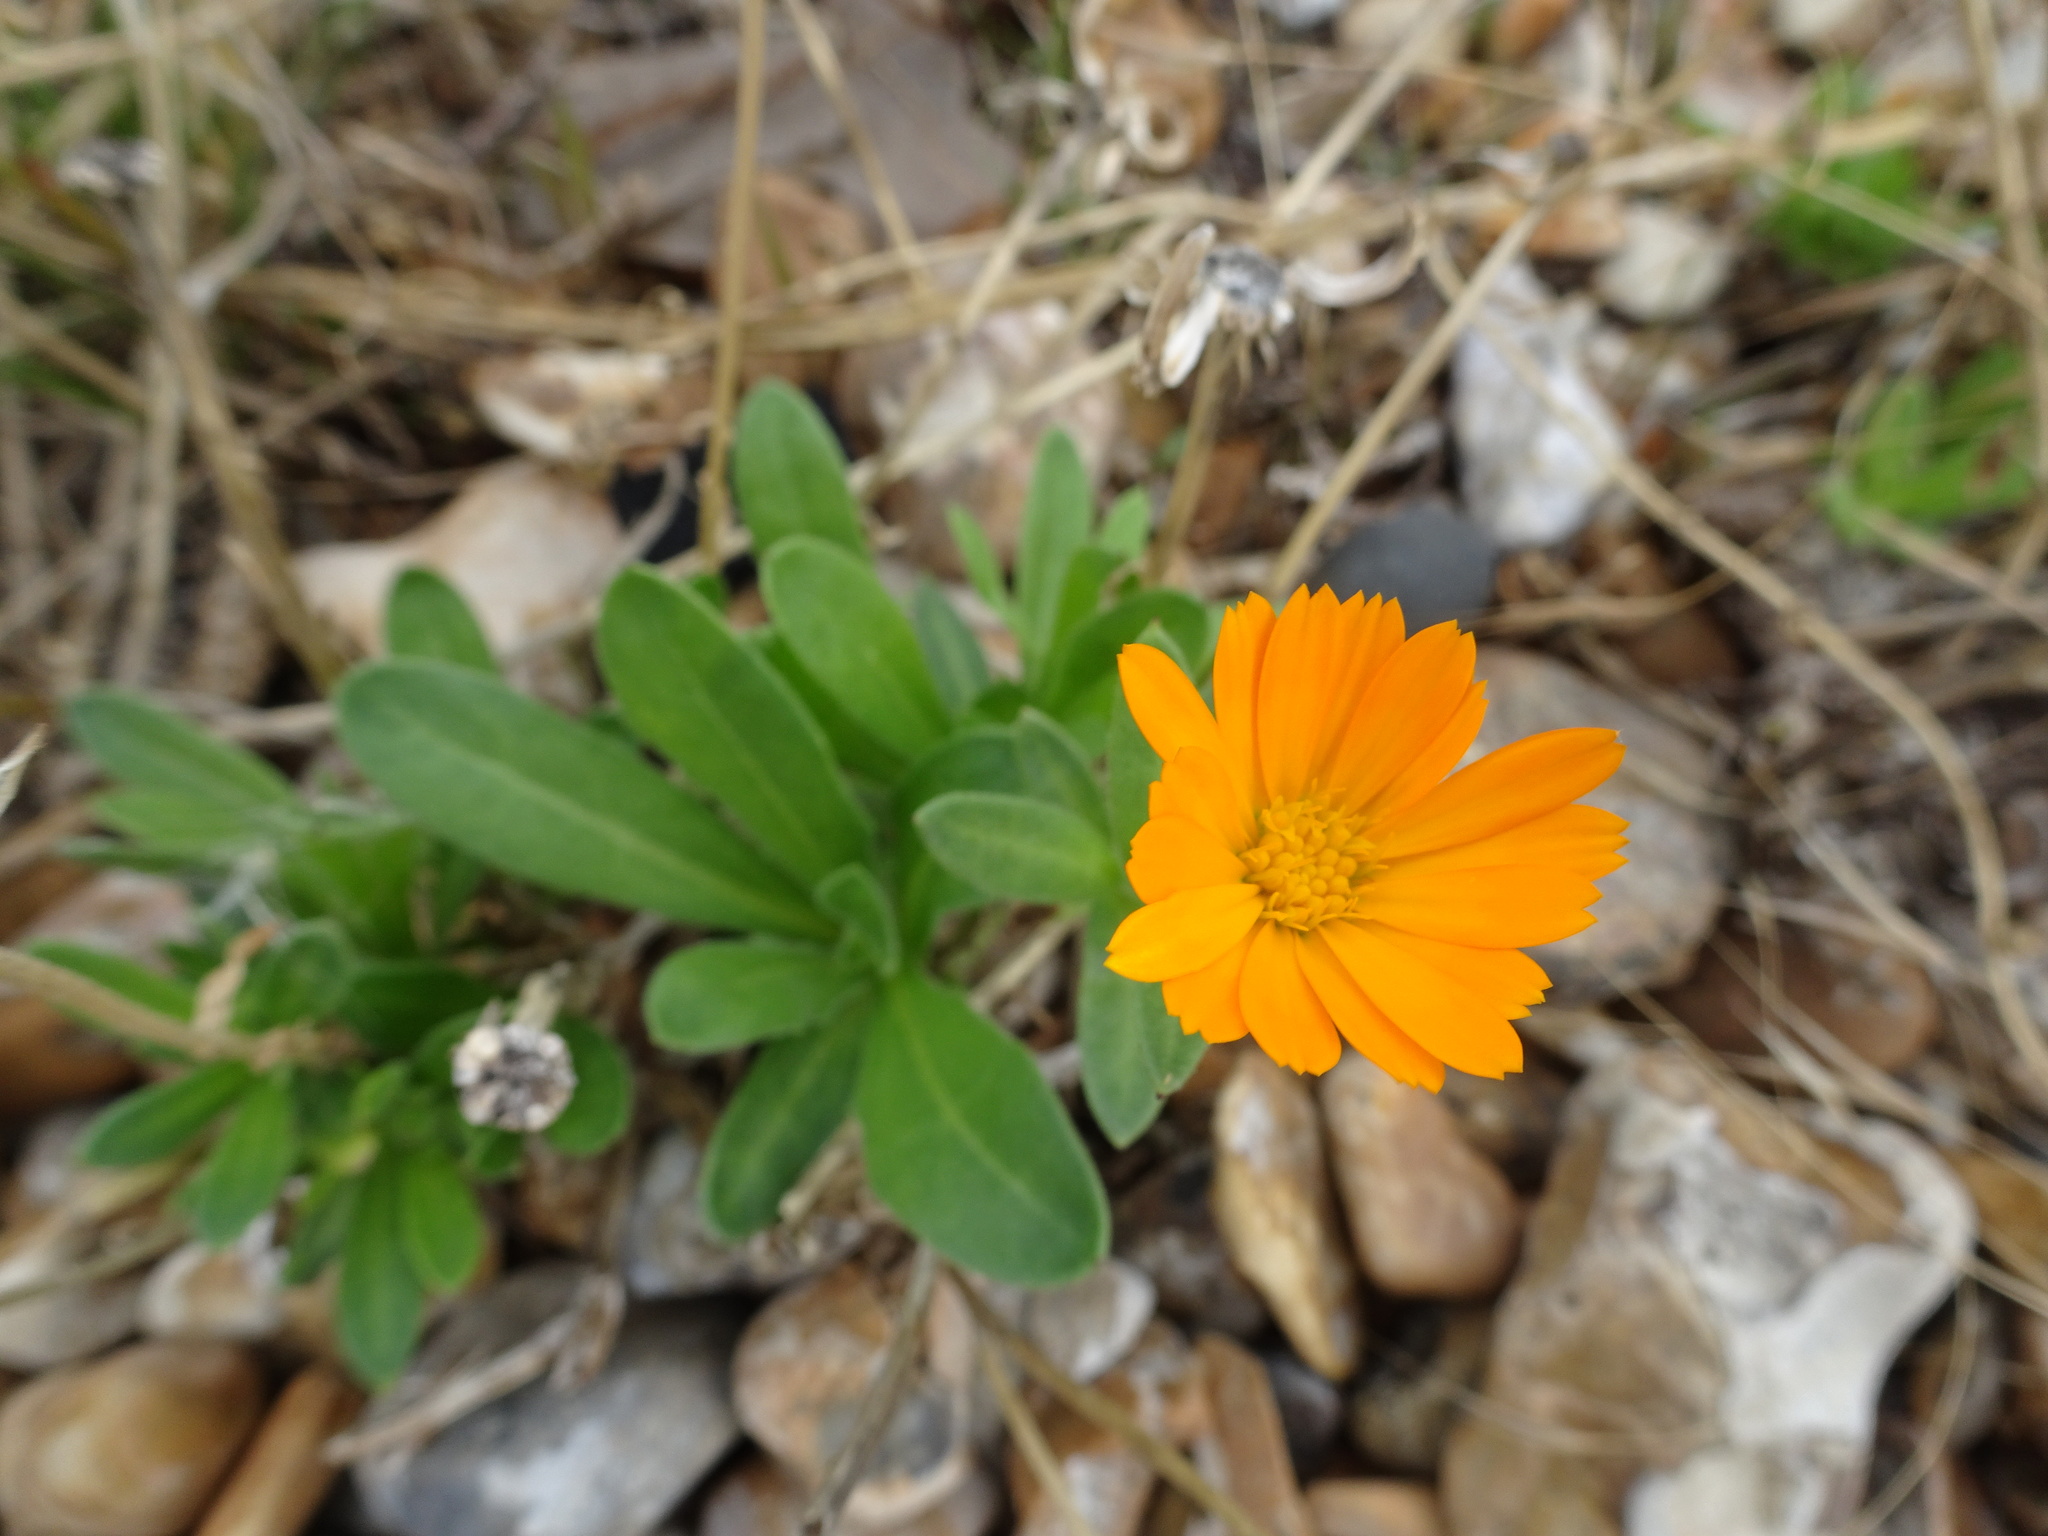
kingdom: Plantae
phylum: Tracheophyta
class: Magnoliopsida
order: Asterales
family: Asteraceae
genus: Calendula
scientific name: Calendula officinalis
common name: Pot marigold
